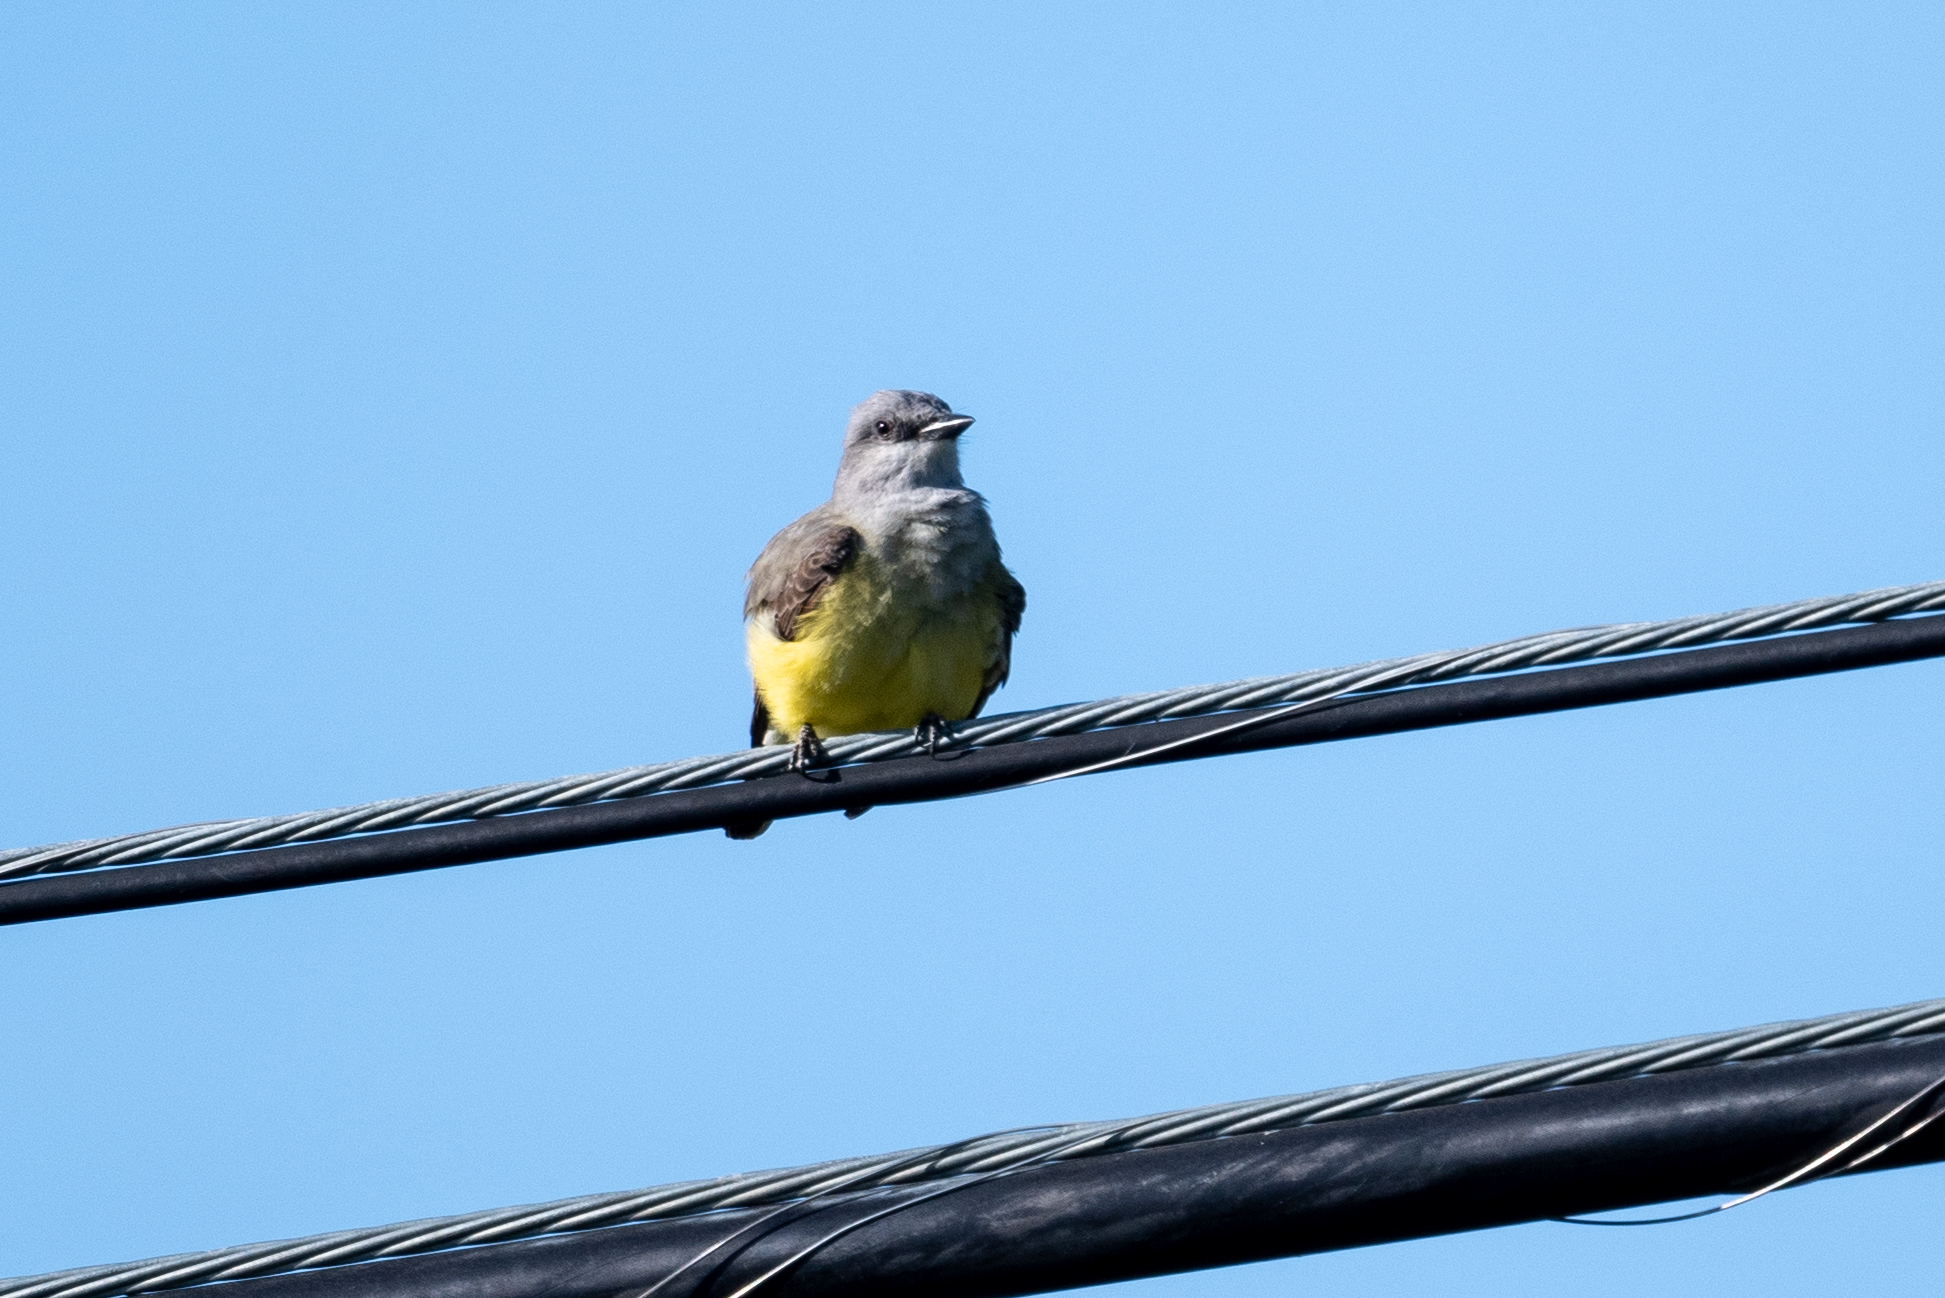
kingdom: Animalia
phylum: Chordata
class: Aves
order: Passeriformes
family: Tyrannidae
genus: Tyrannus
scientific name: Tyrannus verticalis
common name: Western kingbird
